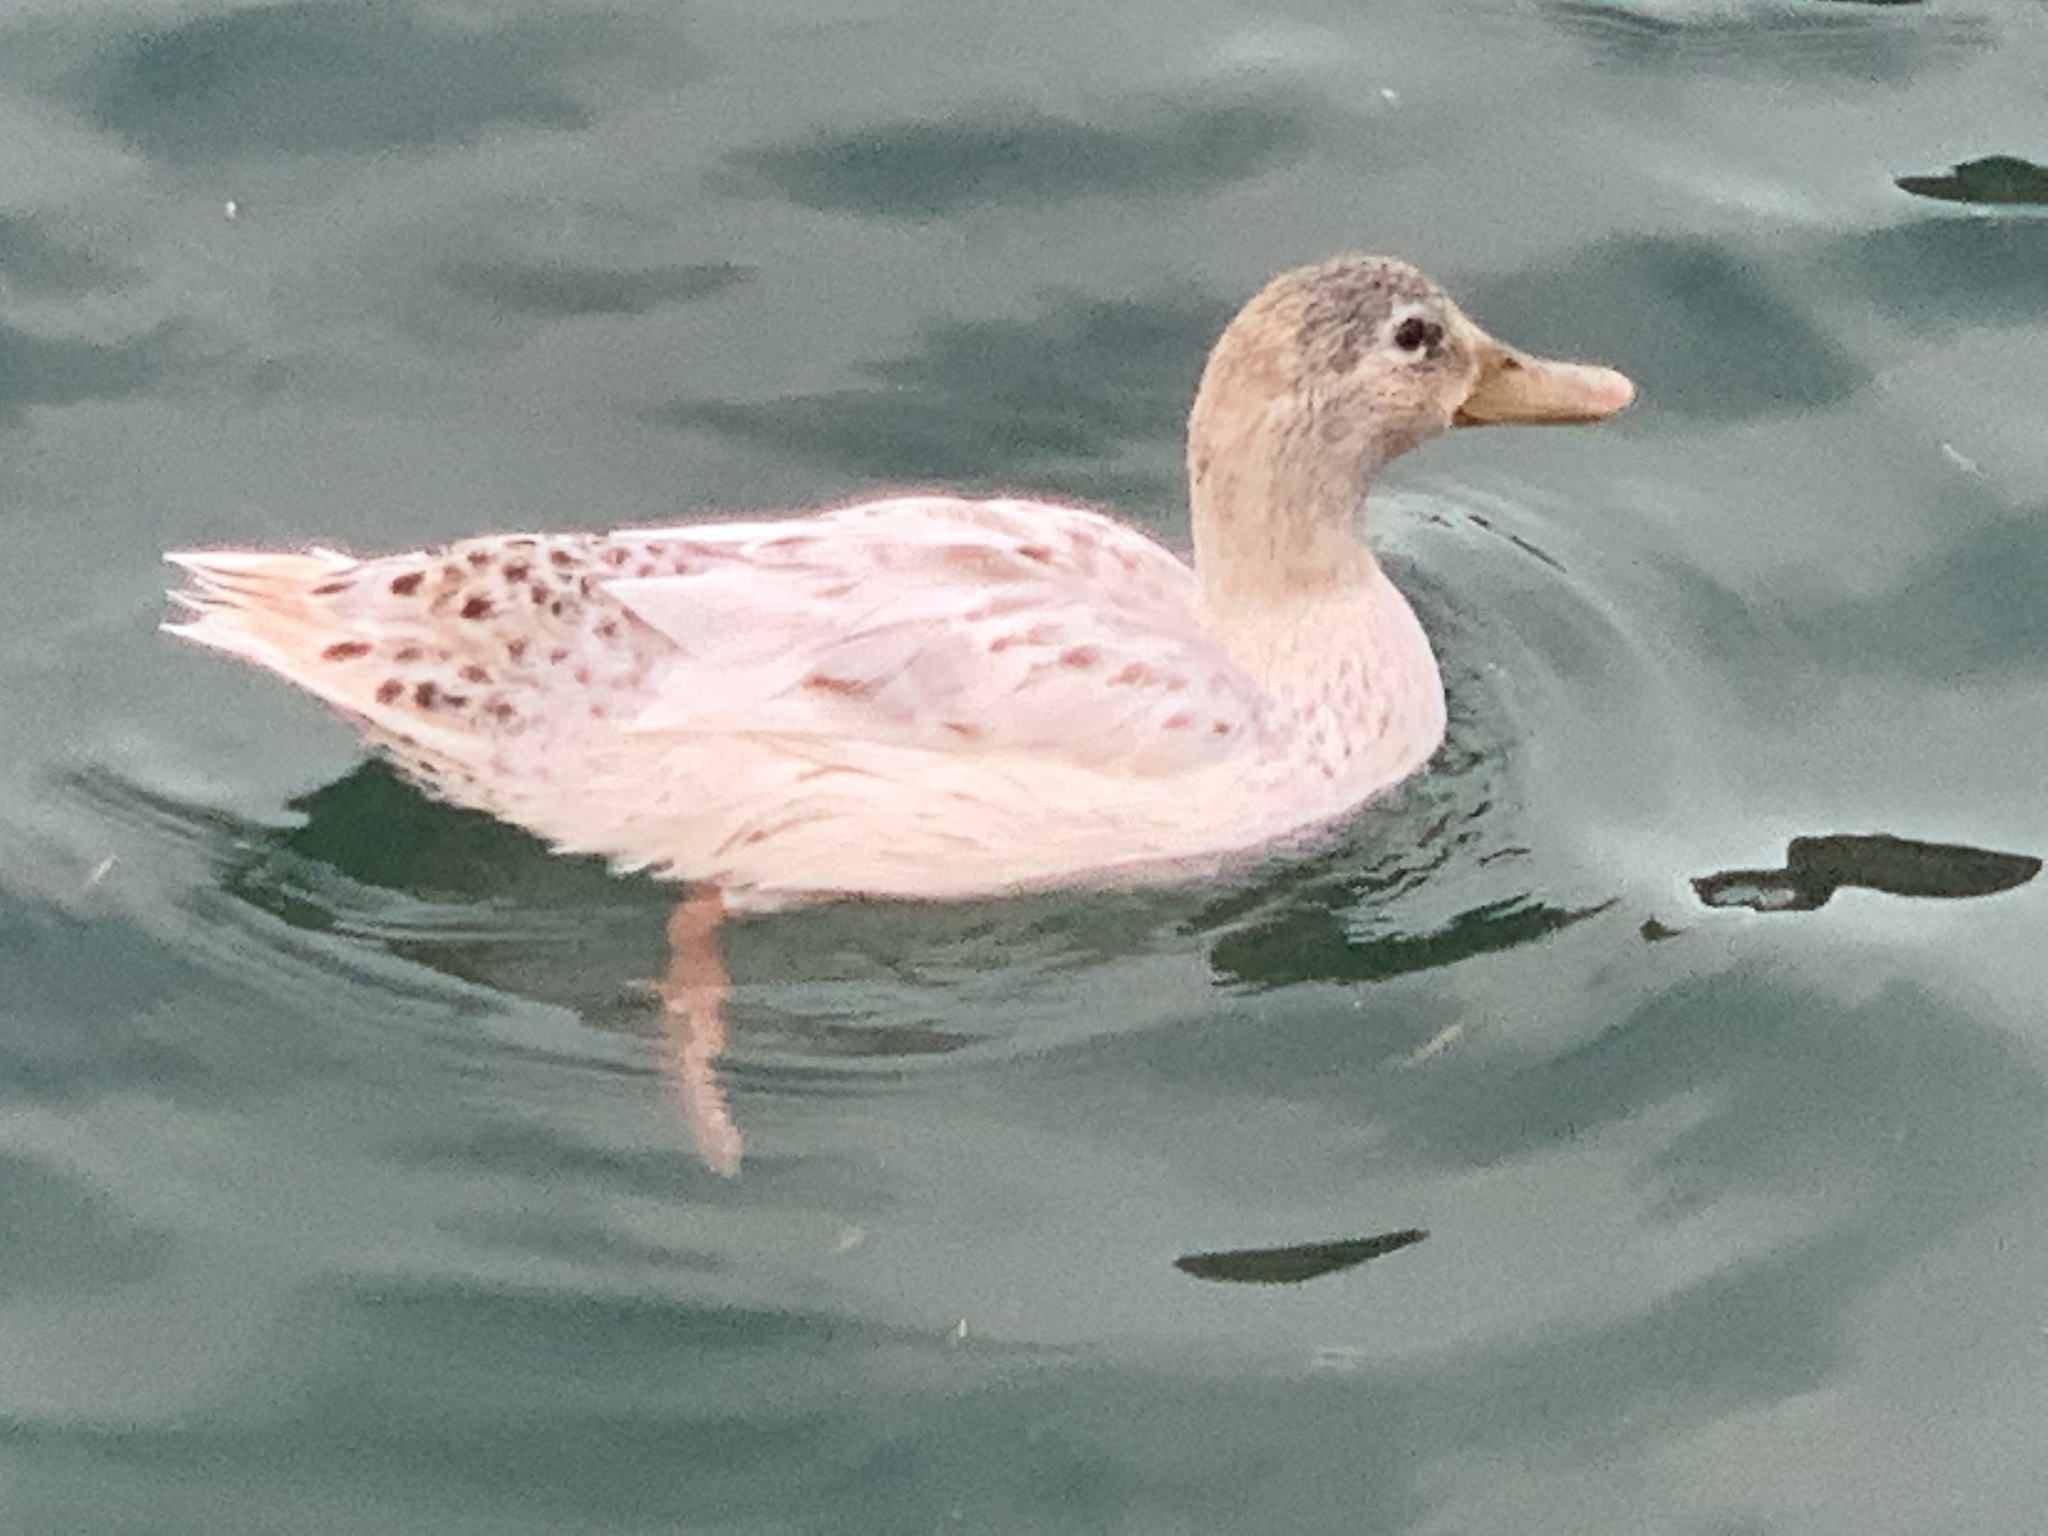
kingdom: Animalia
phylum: Chordata
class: Aves
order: Anseriformes
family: Anatidae
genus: Anas
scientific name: Anas platyrhynchos
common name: Mallard
